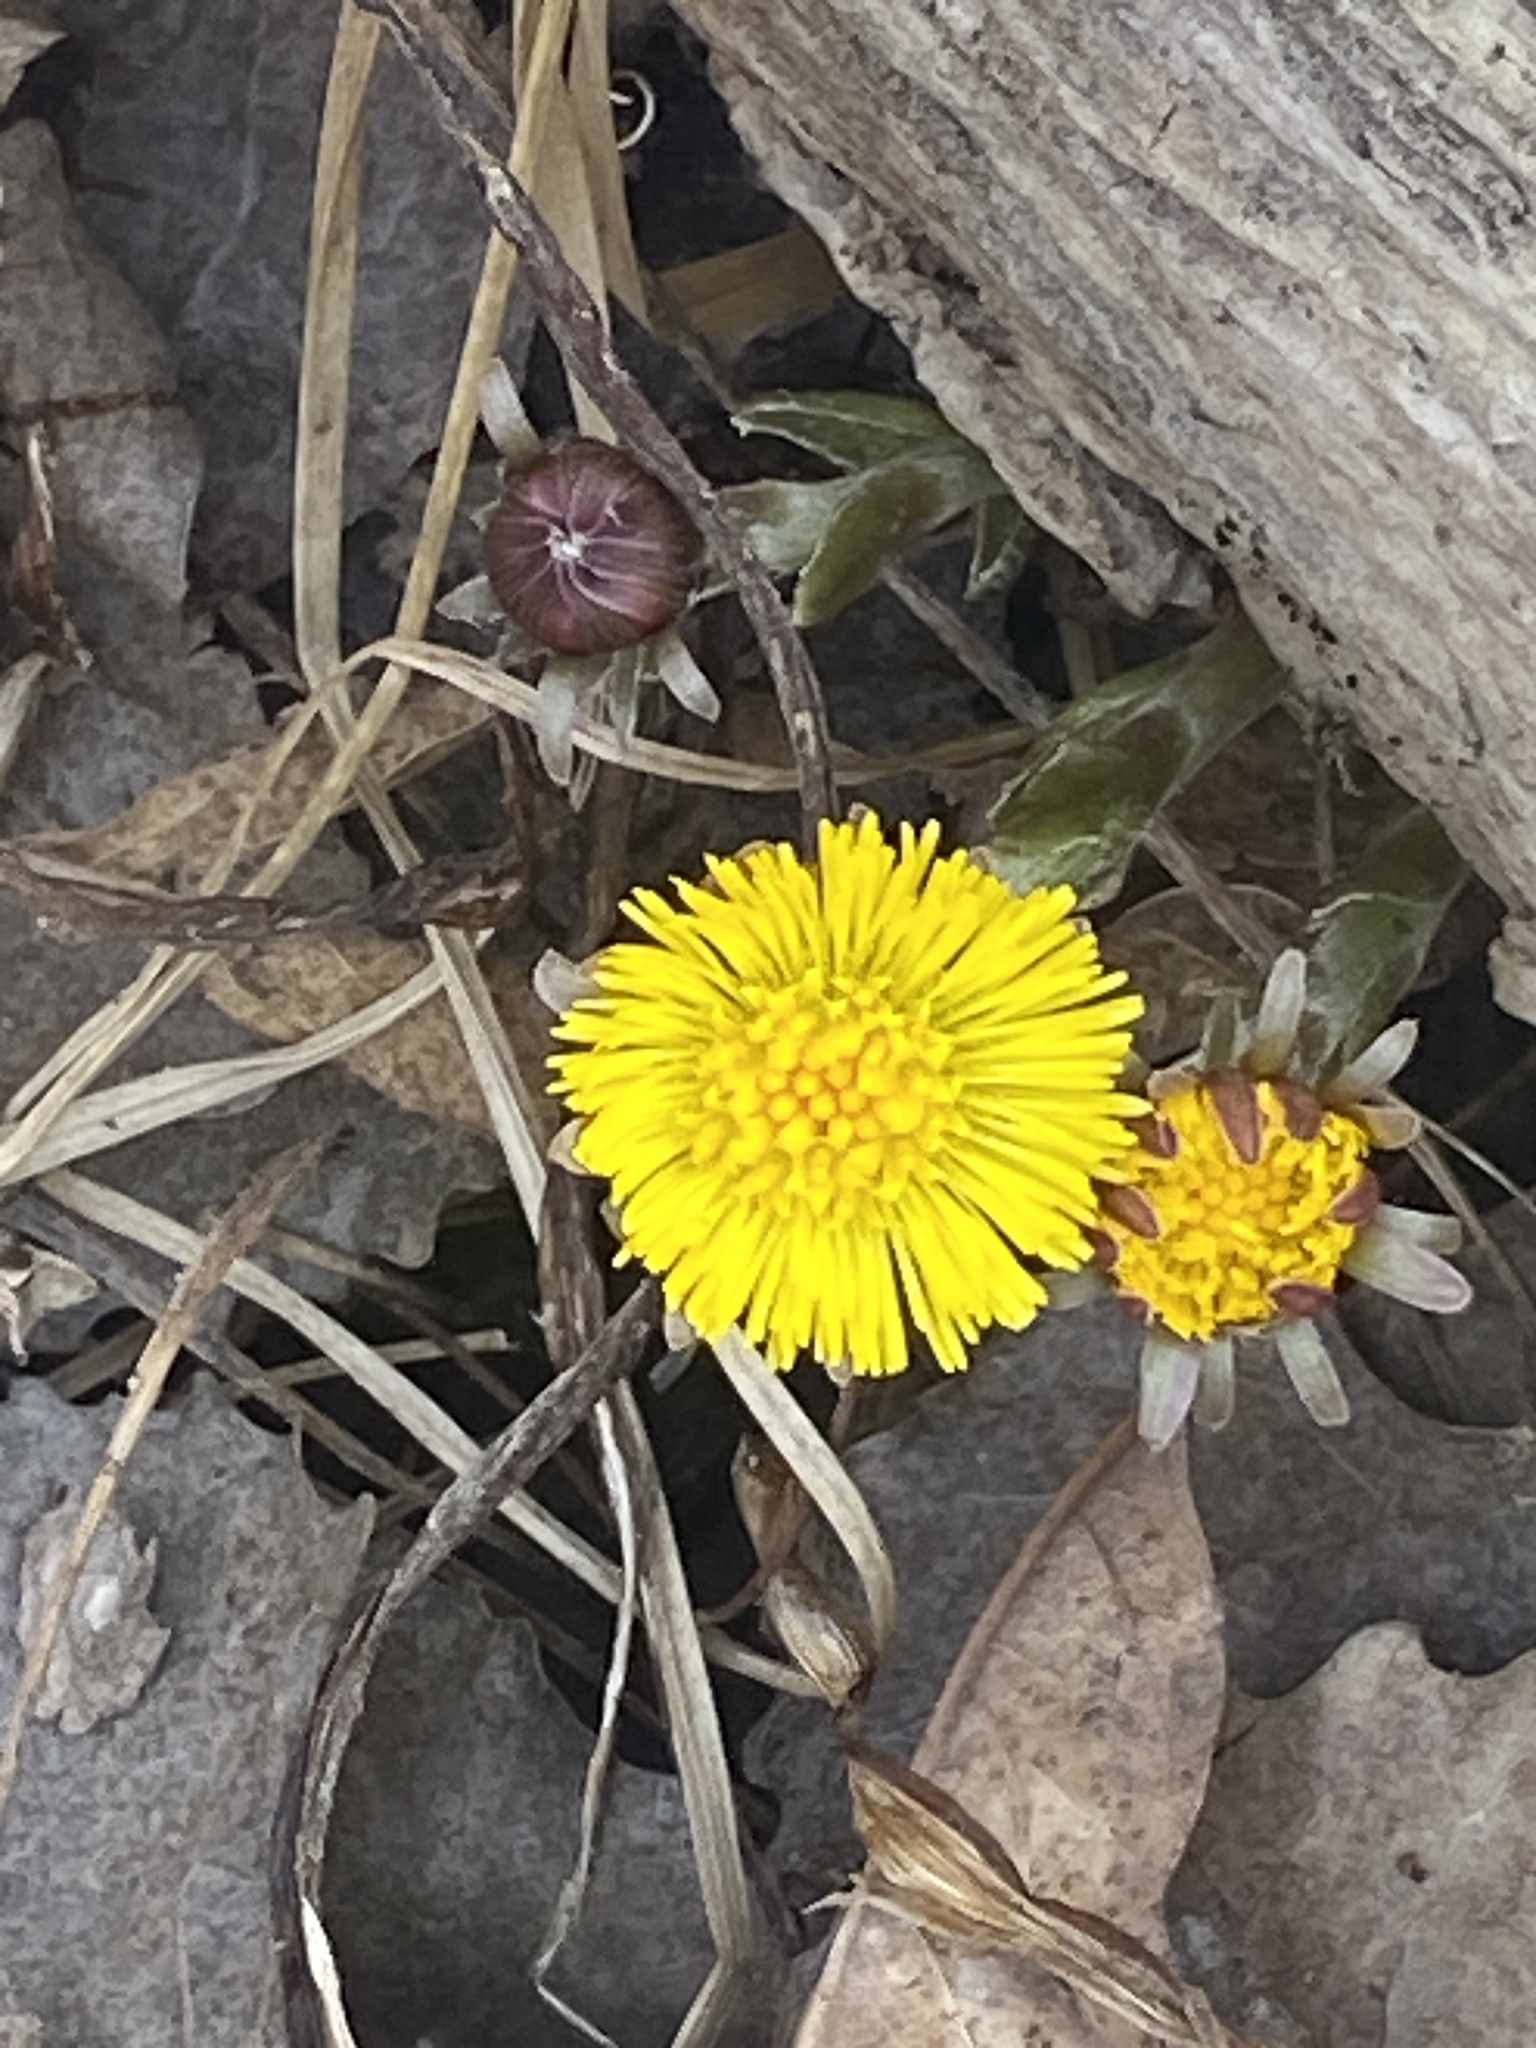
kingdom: Plantae
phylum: Tracheophyta
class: Magnoliopsida
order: Asterales
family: Asteraceae
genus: Tussilago
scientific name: Tussilago farfara
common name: Coltsfoot
